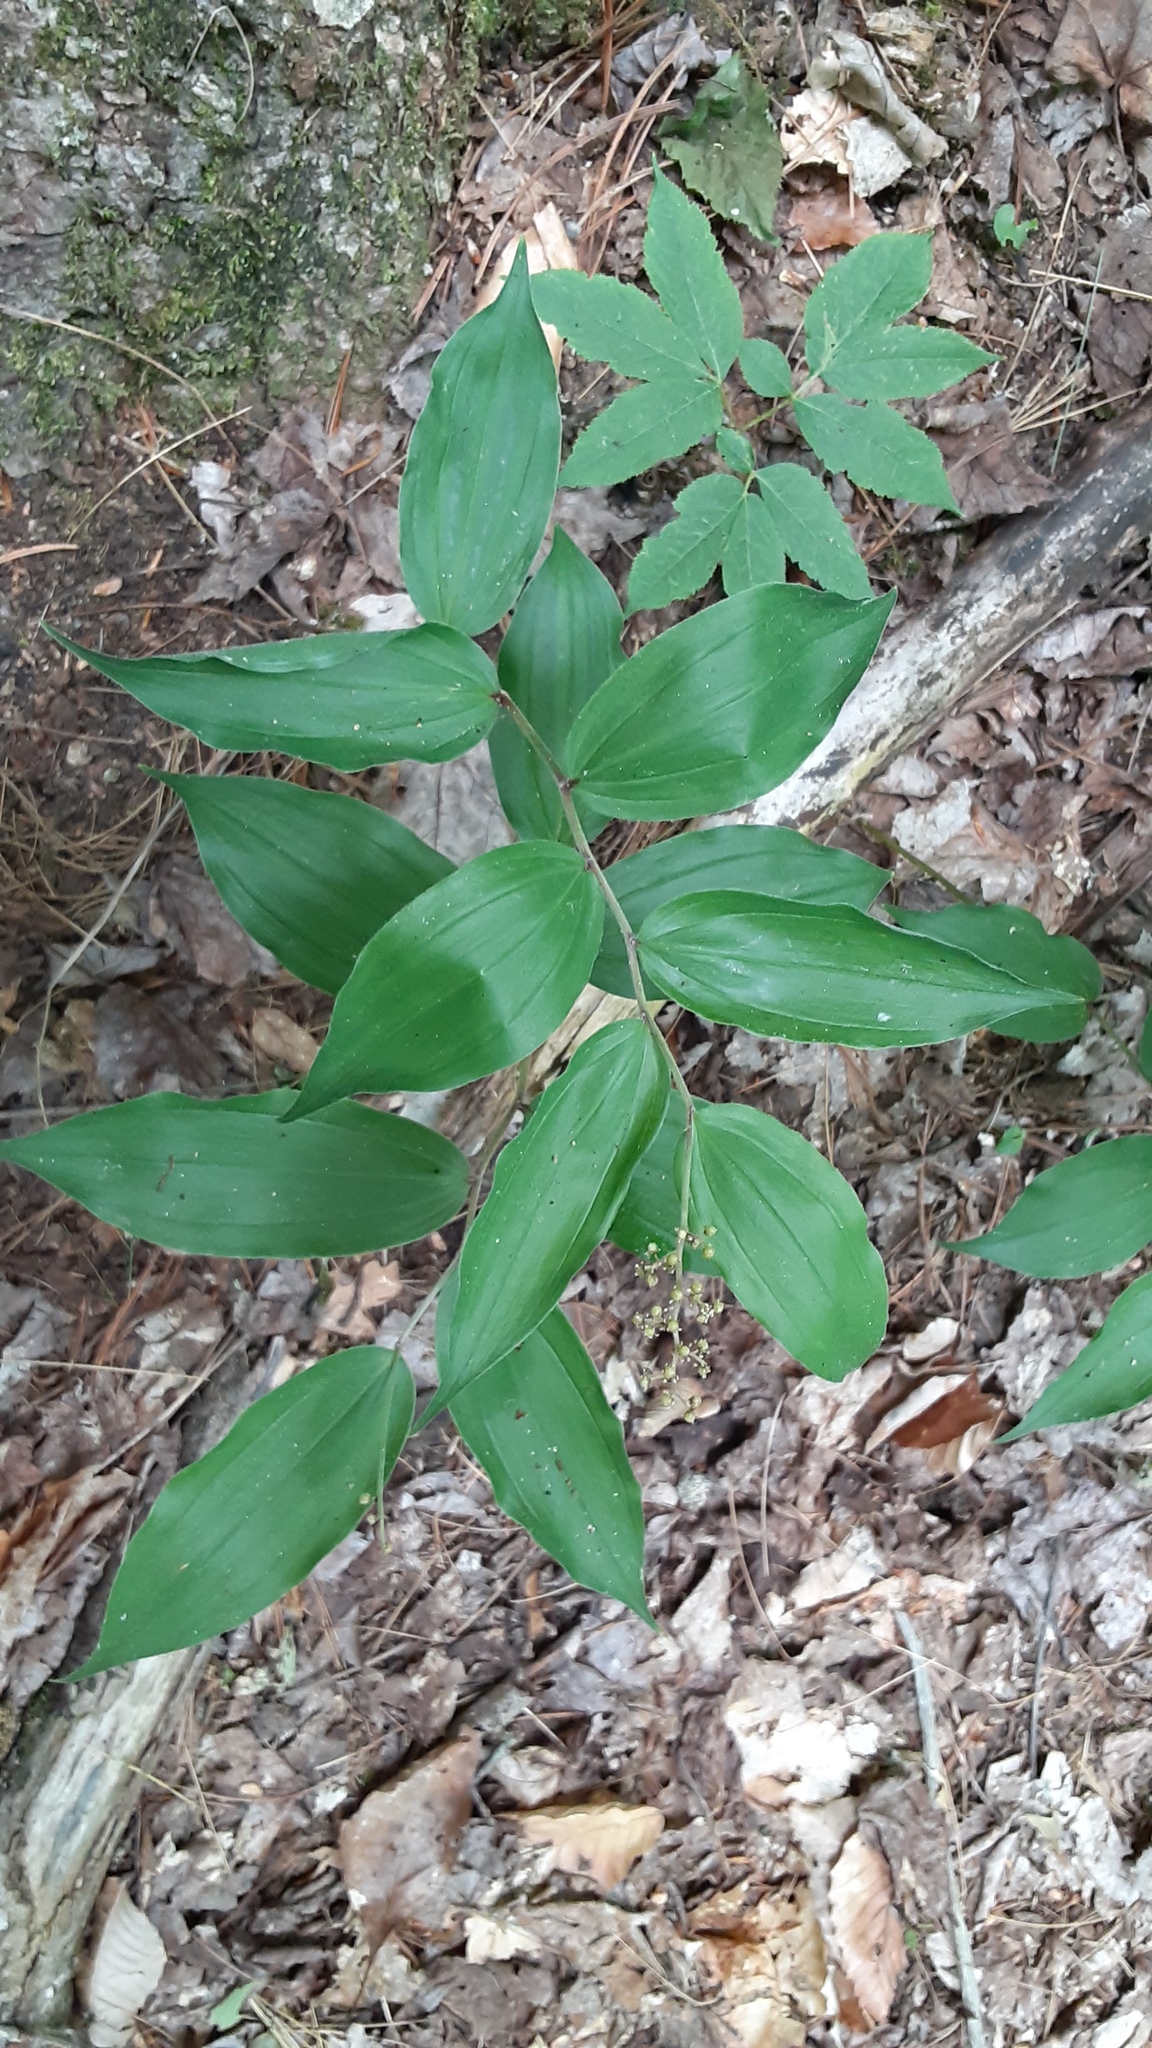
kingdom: Plantae
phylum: Tracheophyta
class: Liliopsida
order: Asparagales
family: Asparagaceae
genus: Maianthemum
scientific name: Maianthemum racemosum
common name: False spikenard
